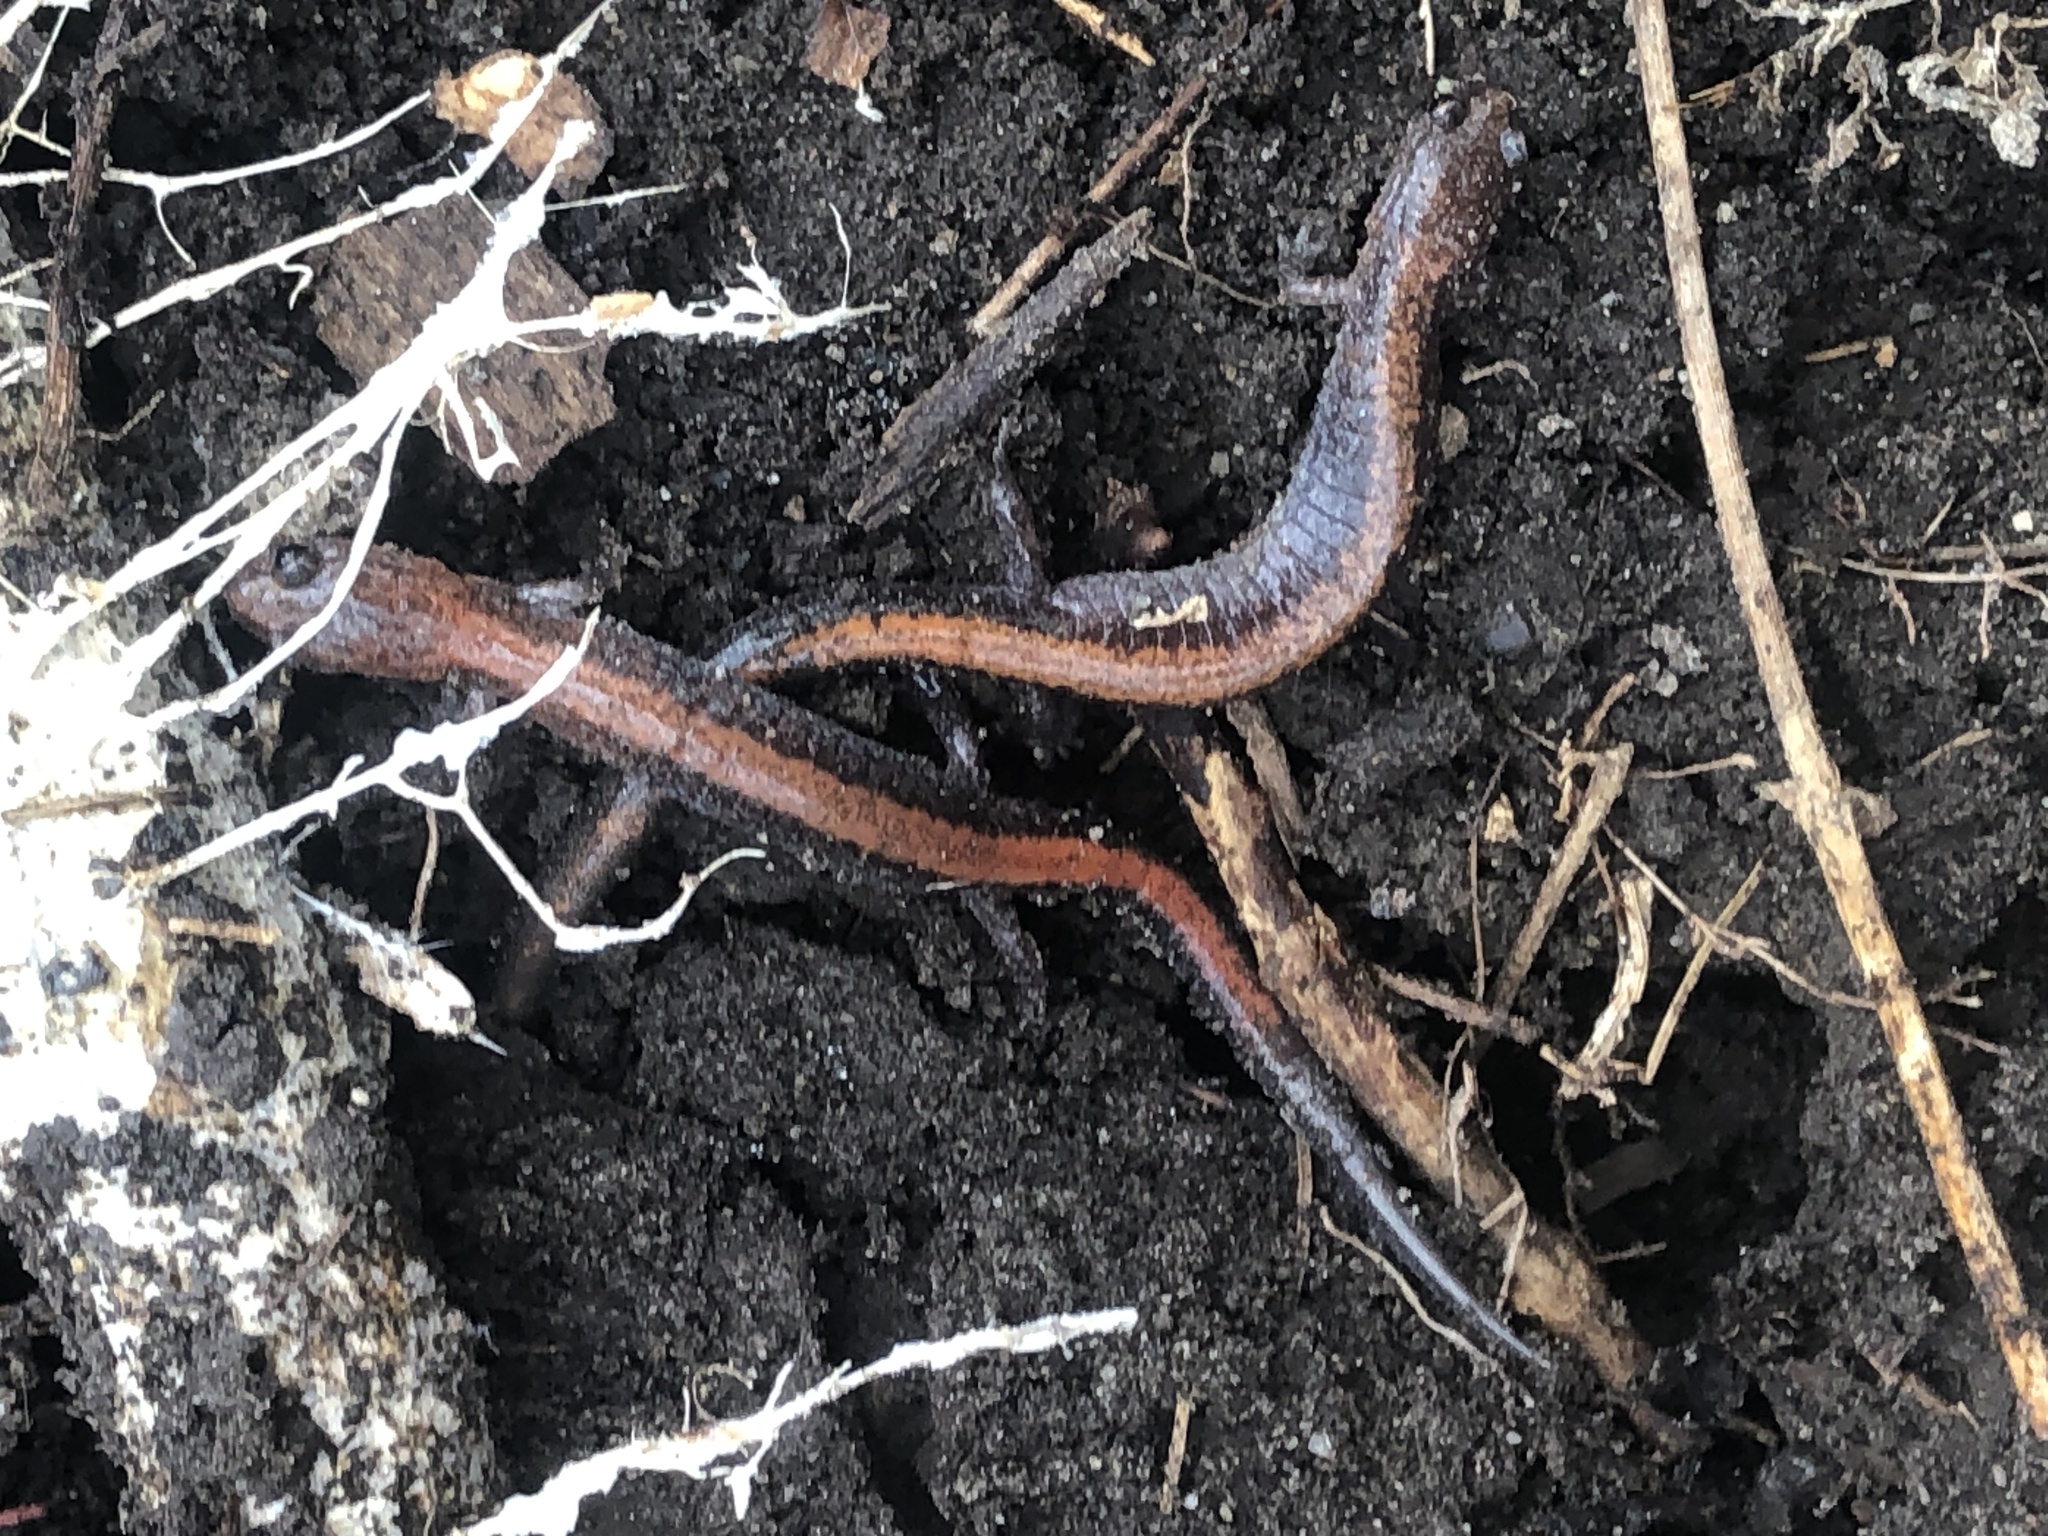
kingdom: Animalia
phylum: Chordata
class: Amphibia
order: Caudata
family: Plethodontidae
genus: Plethodon
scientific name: Plethodon cinereus
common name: Redback salamander
